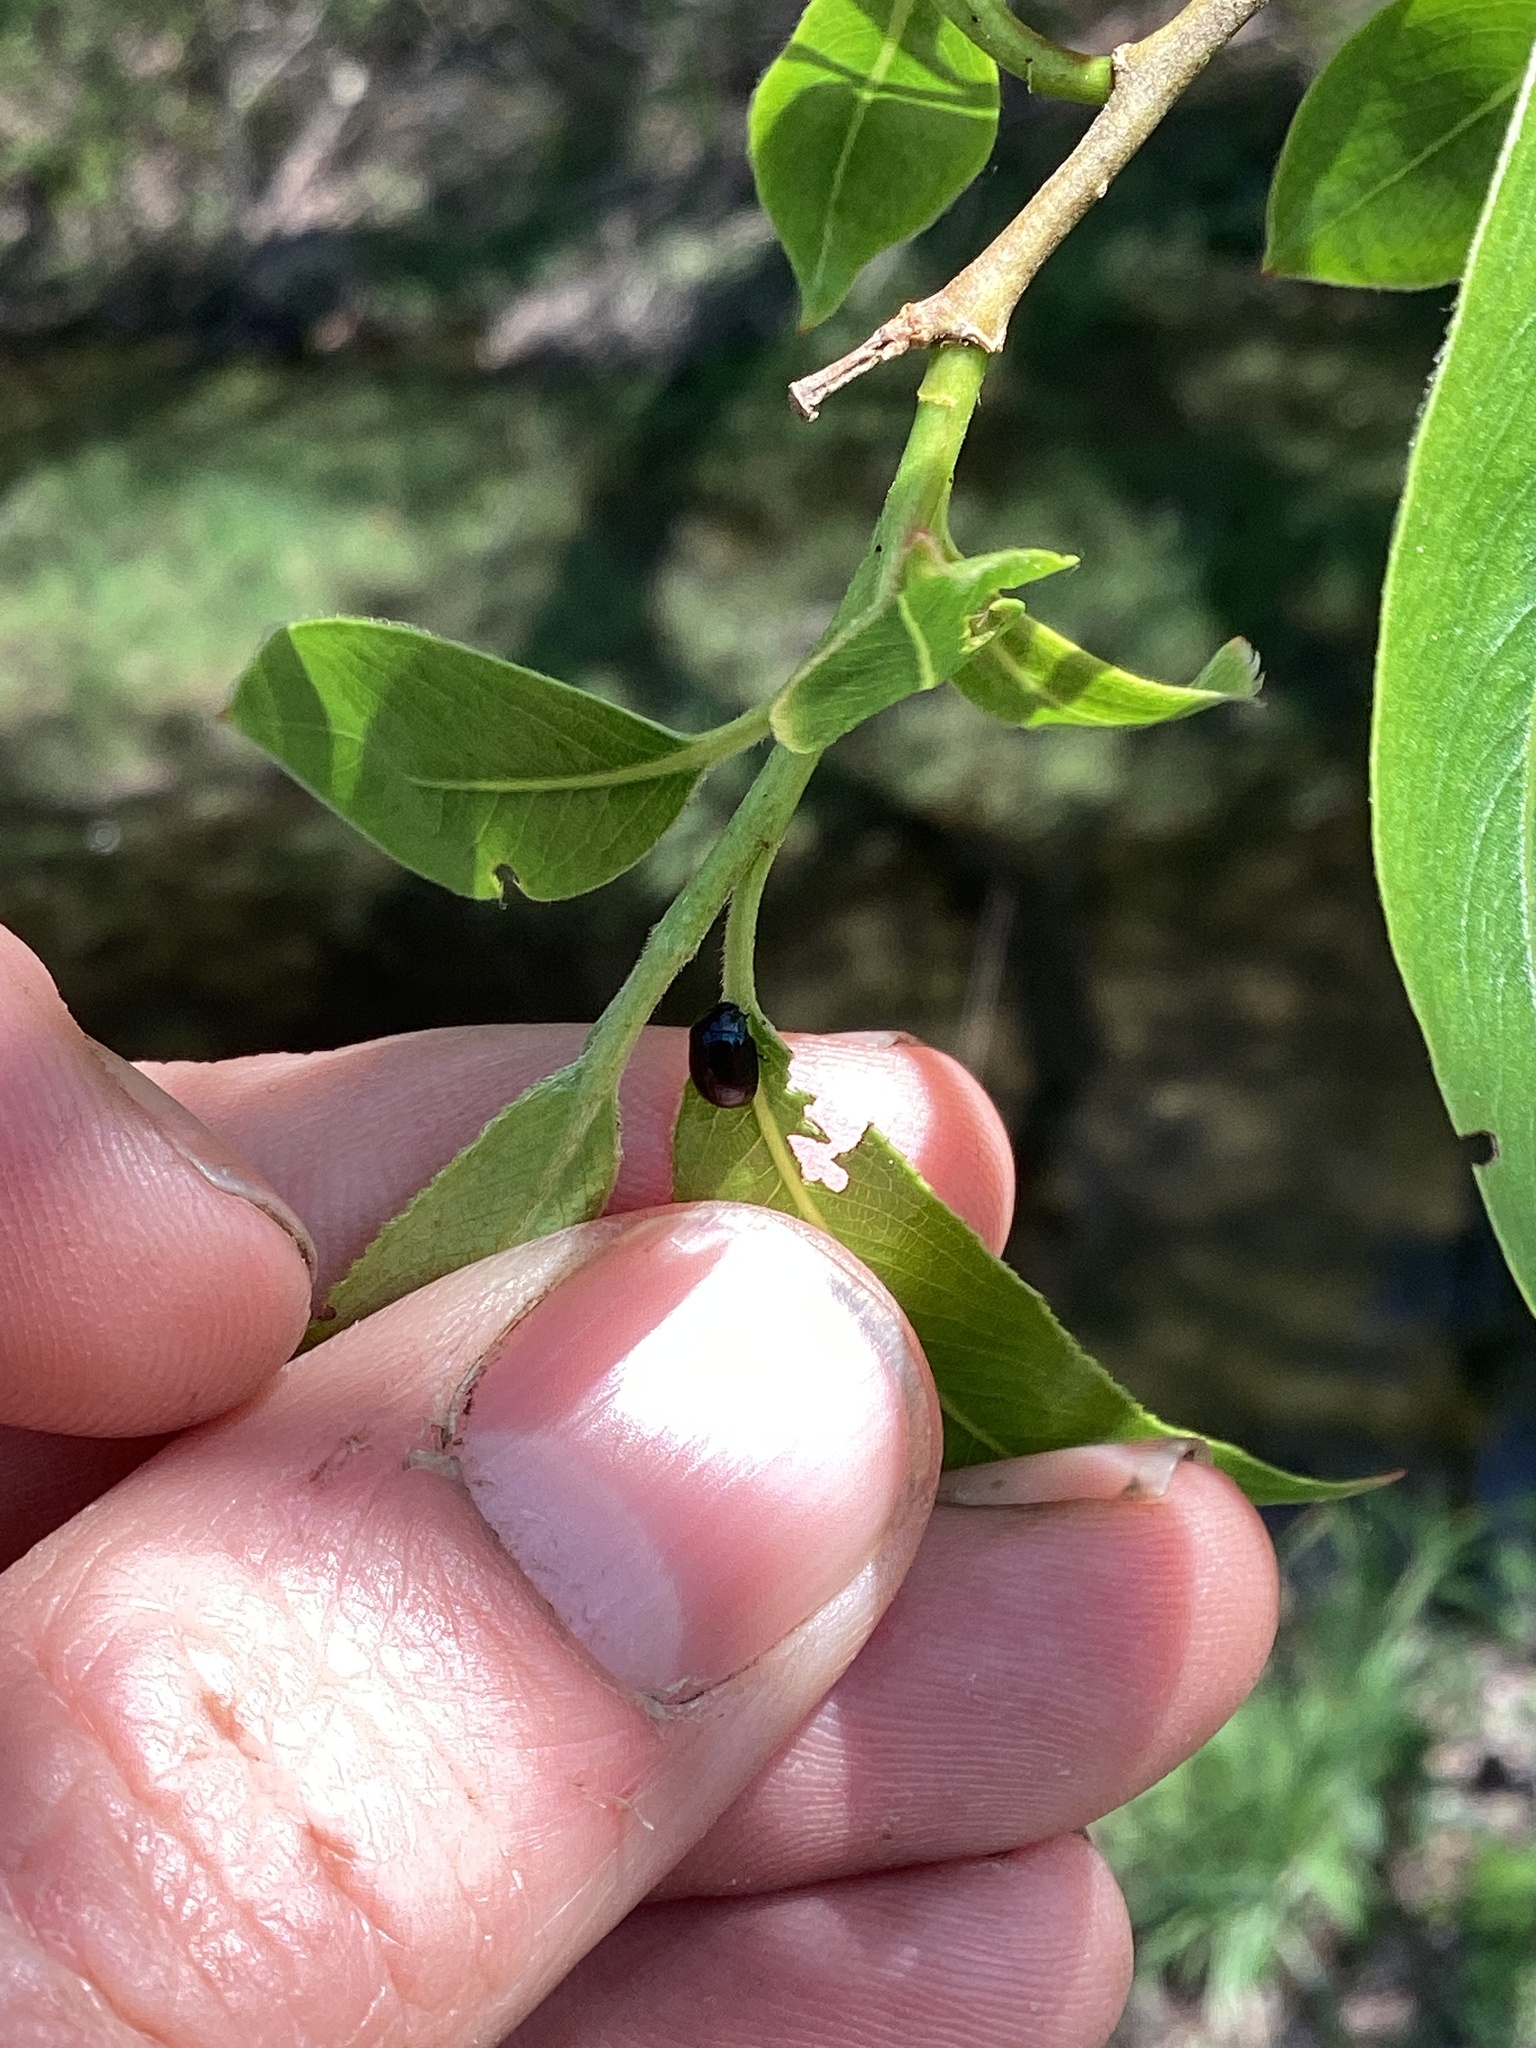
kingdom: Animalia
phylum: Arthropoda
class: Insecta
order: Coleoptera
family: Chrysomelidae
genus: Plagiodera
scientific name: Plagiodera versicolora
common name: Imported willow leaf beetle
